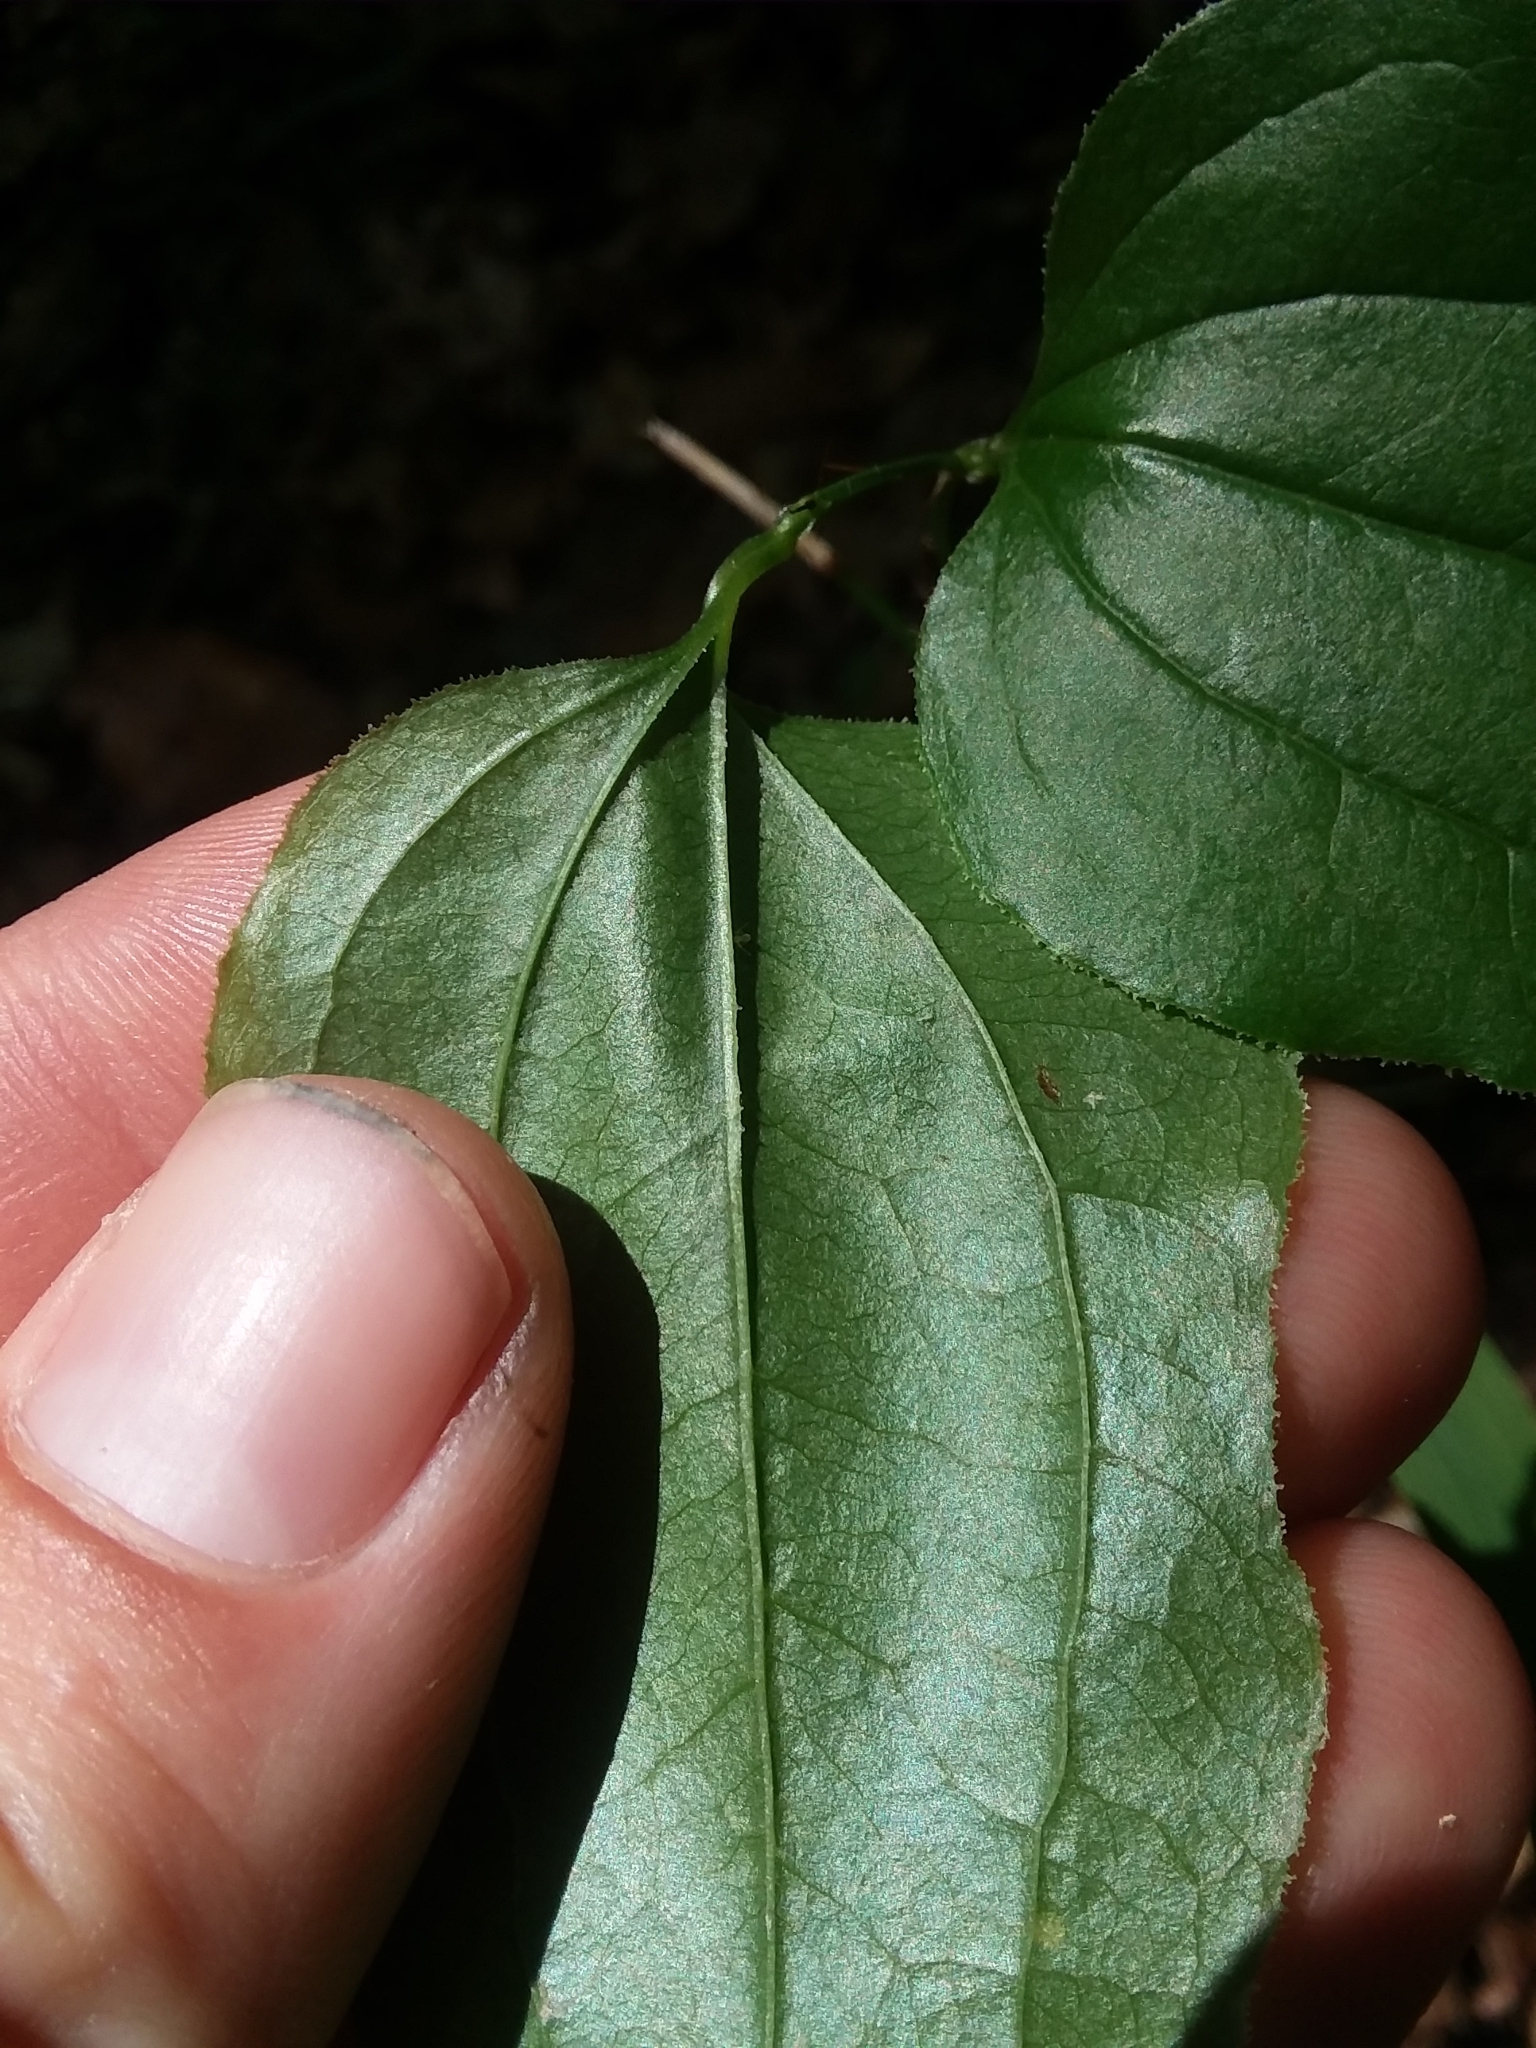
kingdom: Plantae
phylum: Tracheophyta
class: Liliopsida
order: Liliales
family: Smilacaceae
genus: Smilax
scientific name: Smilax tamnoides
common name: Hellfetter
